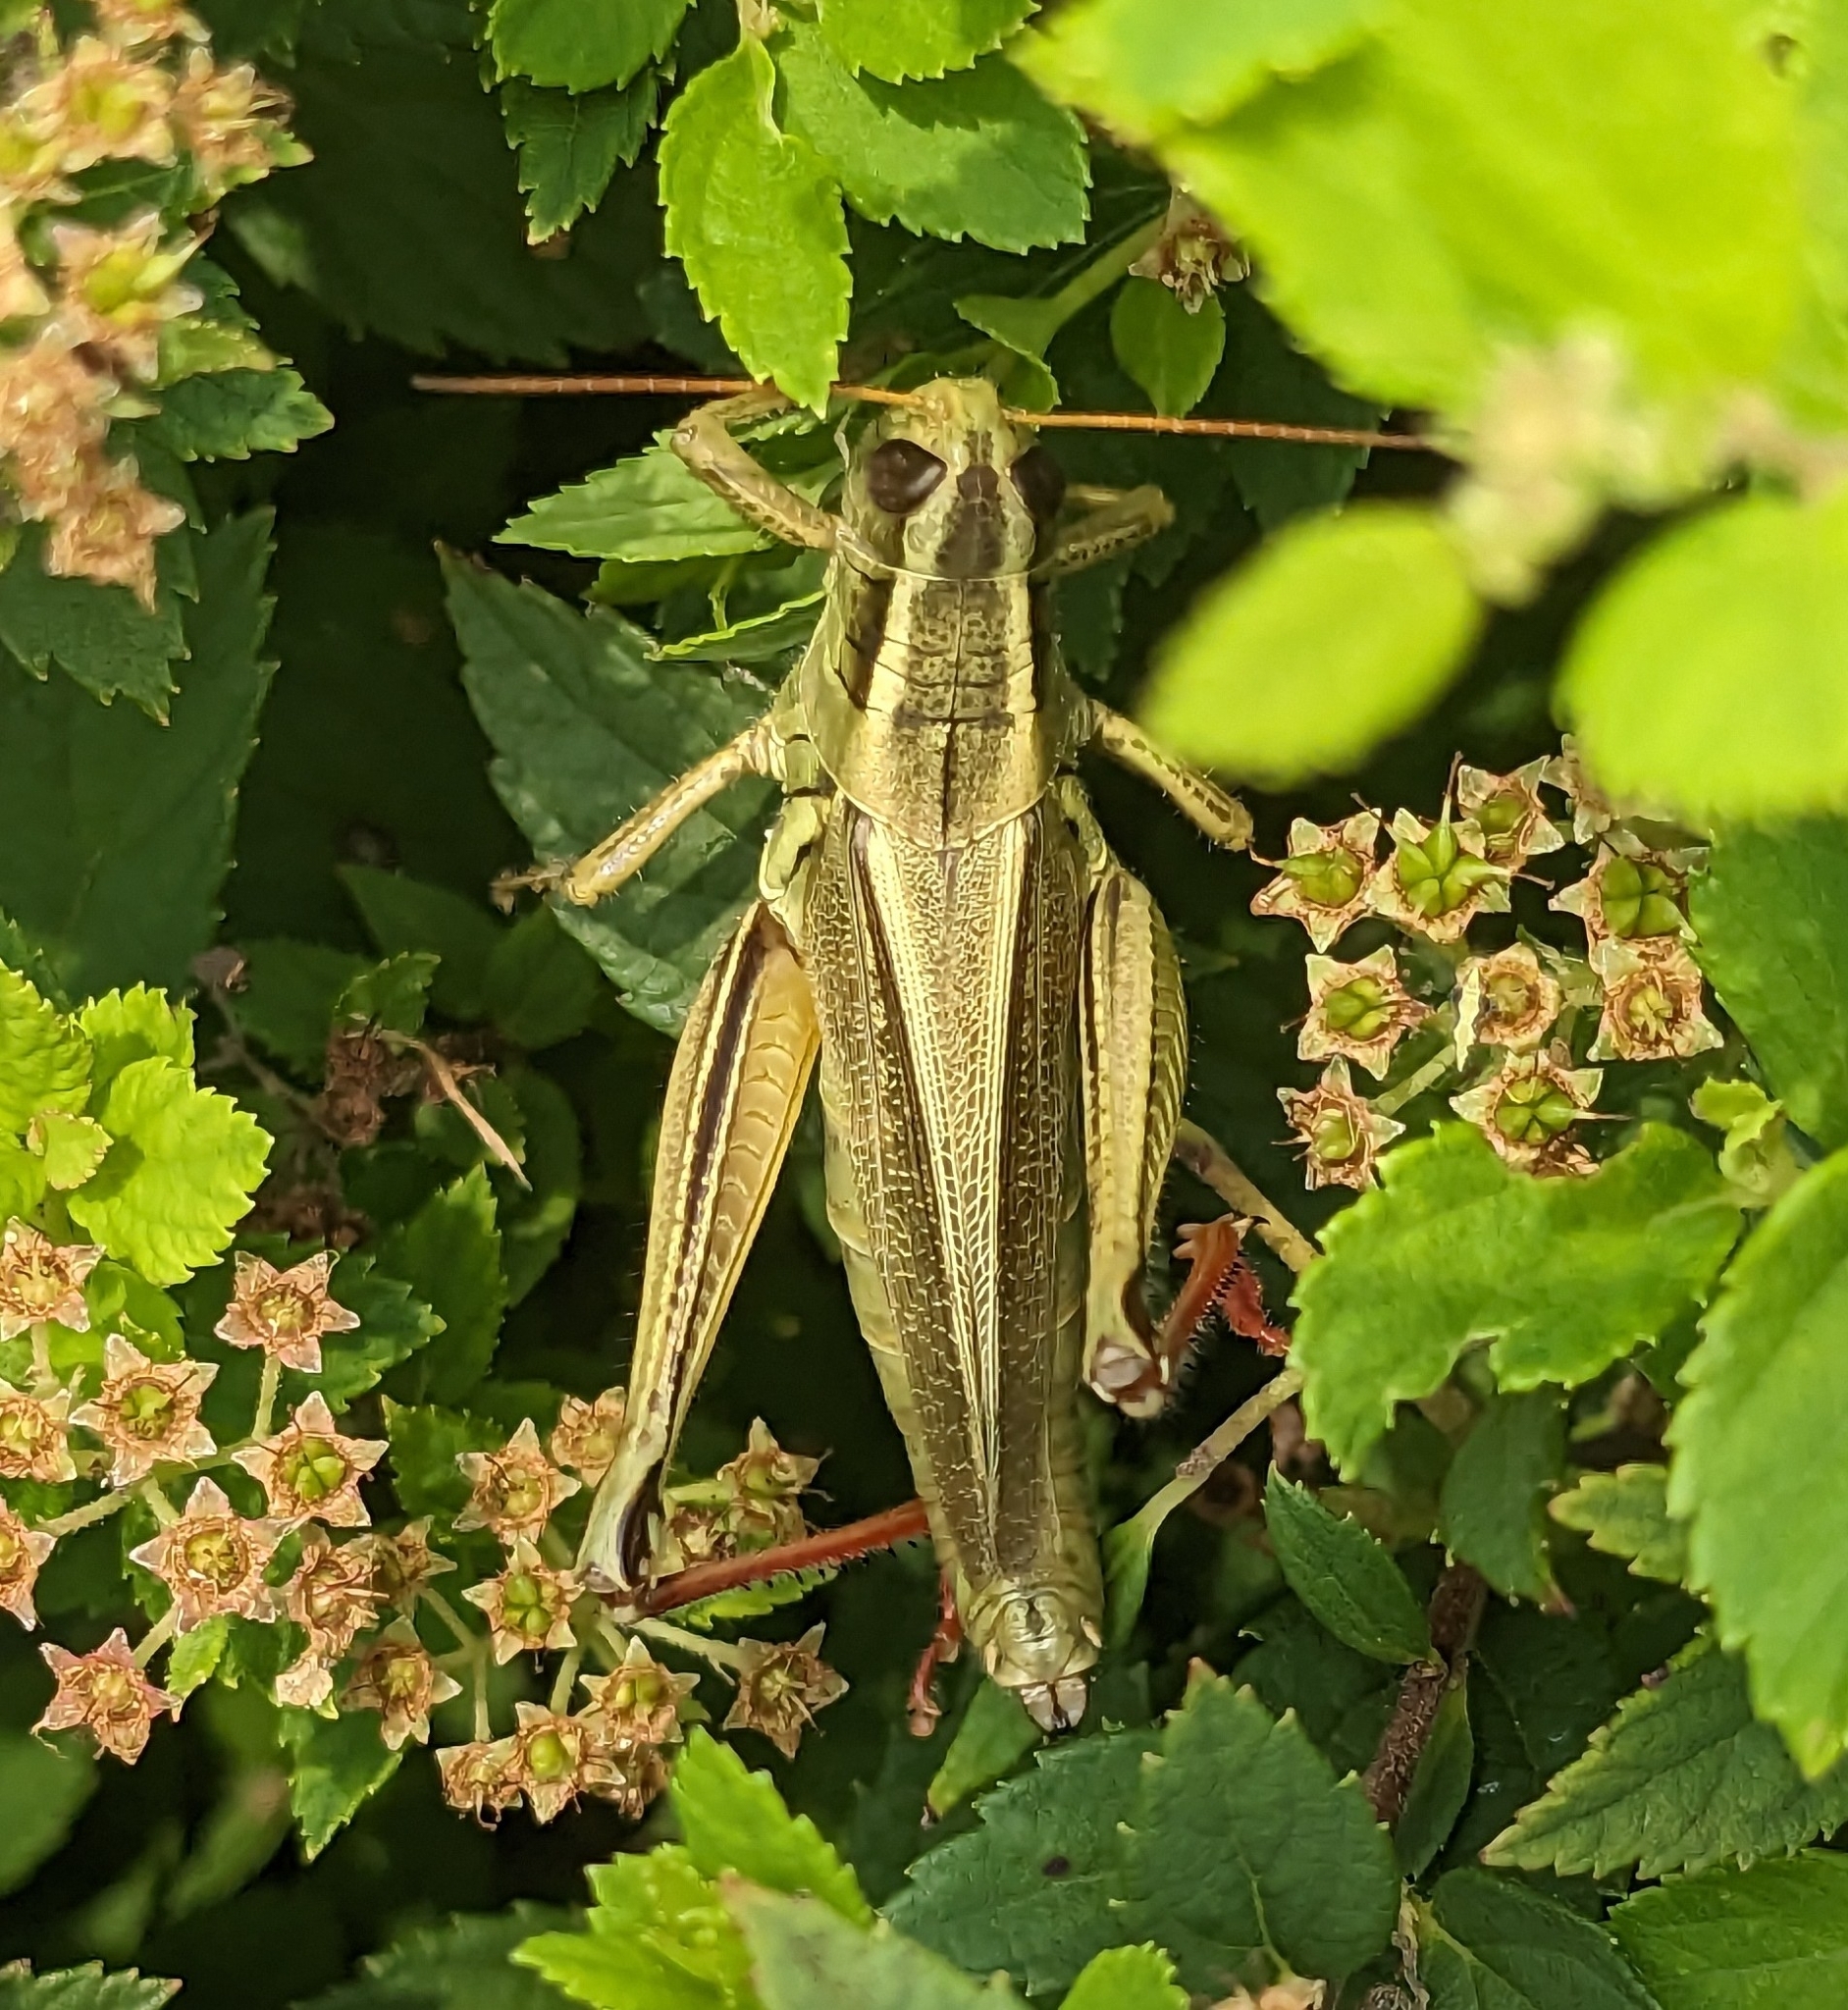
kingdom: Animalia
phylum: Arthropoda
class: Insecta
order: Orthoptera
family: Acrididae
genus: Melanoplus
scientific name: Melanoplus bivittatus
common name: Two-striped grasshopper
